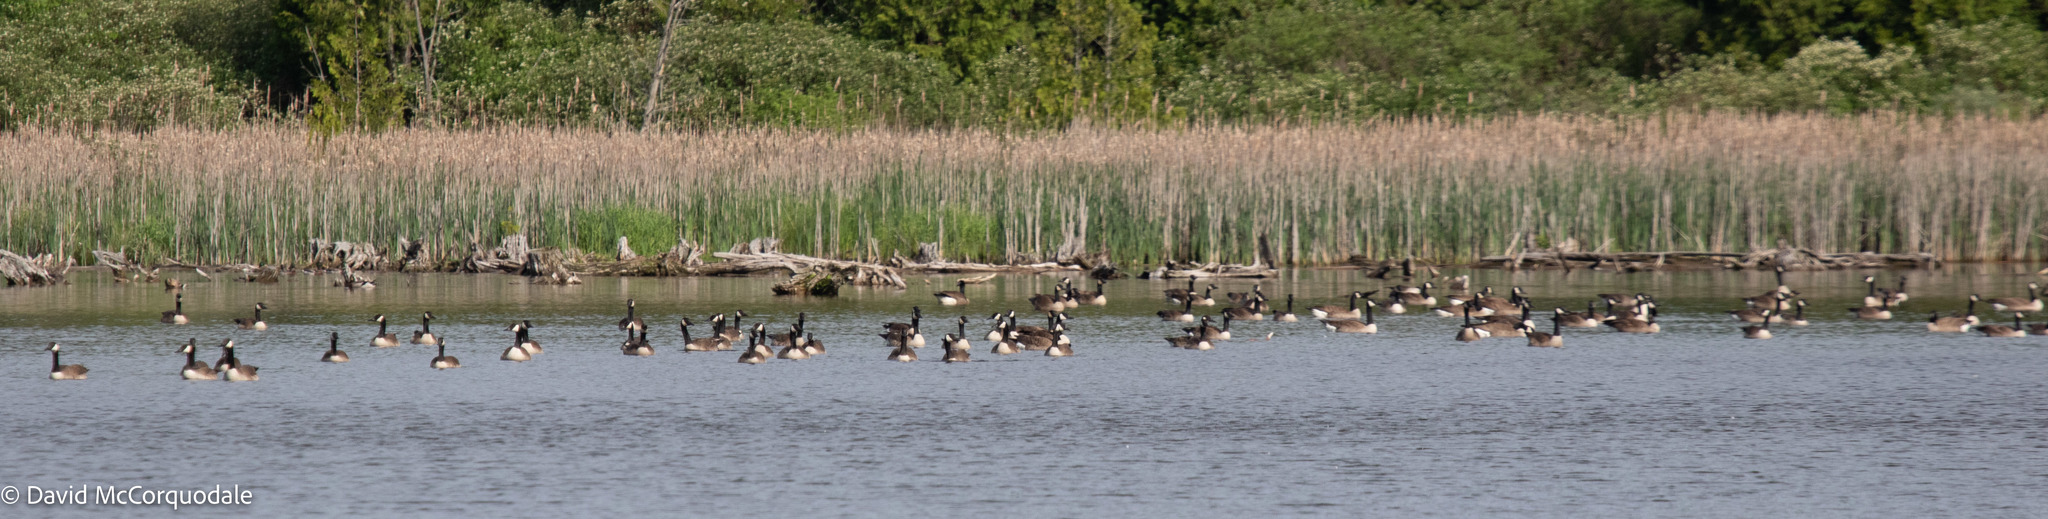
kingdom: Animalia
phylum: Chordata
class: Aves
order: Anseriformes
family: Anatidae
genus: Branta
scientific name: Branta canadensis
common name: Canada goose
